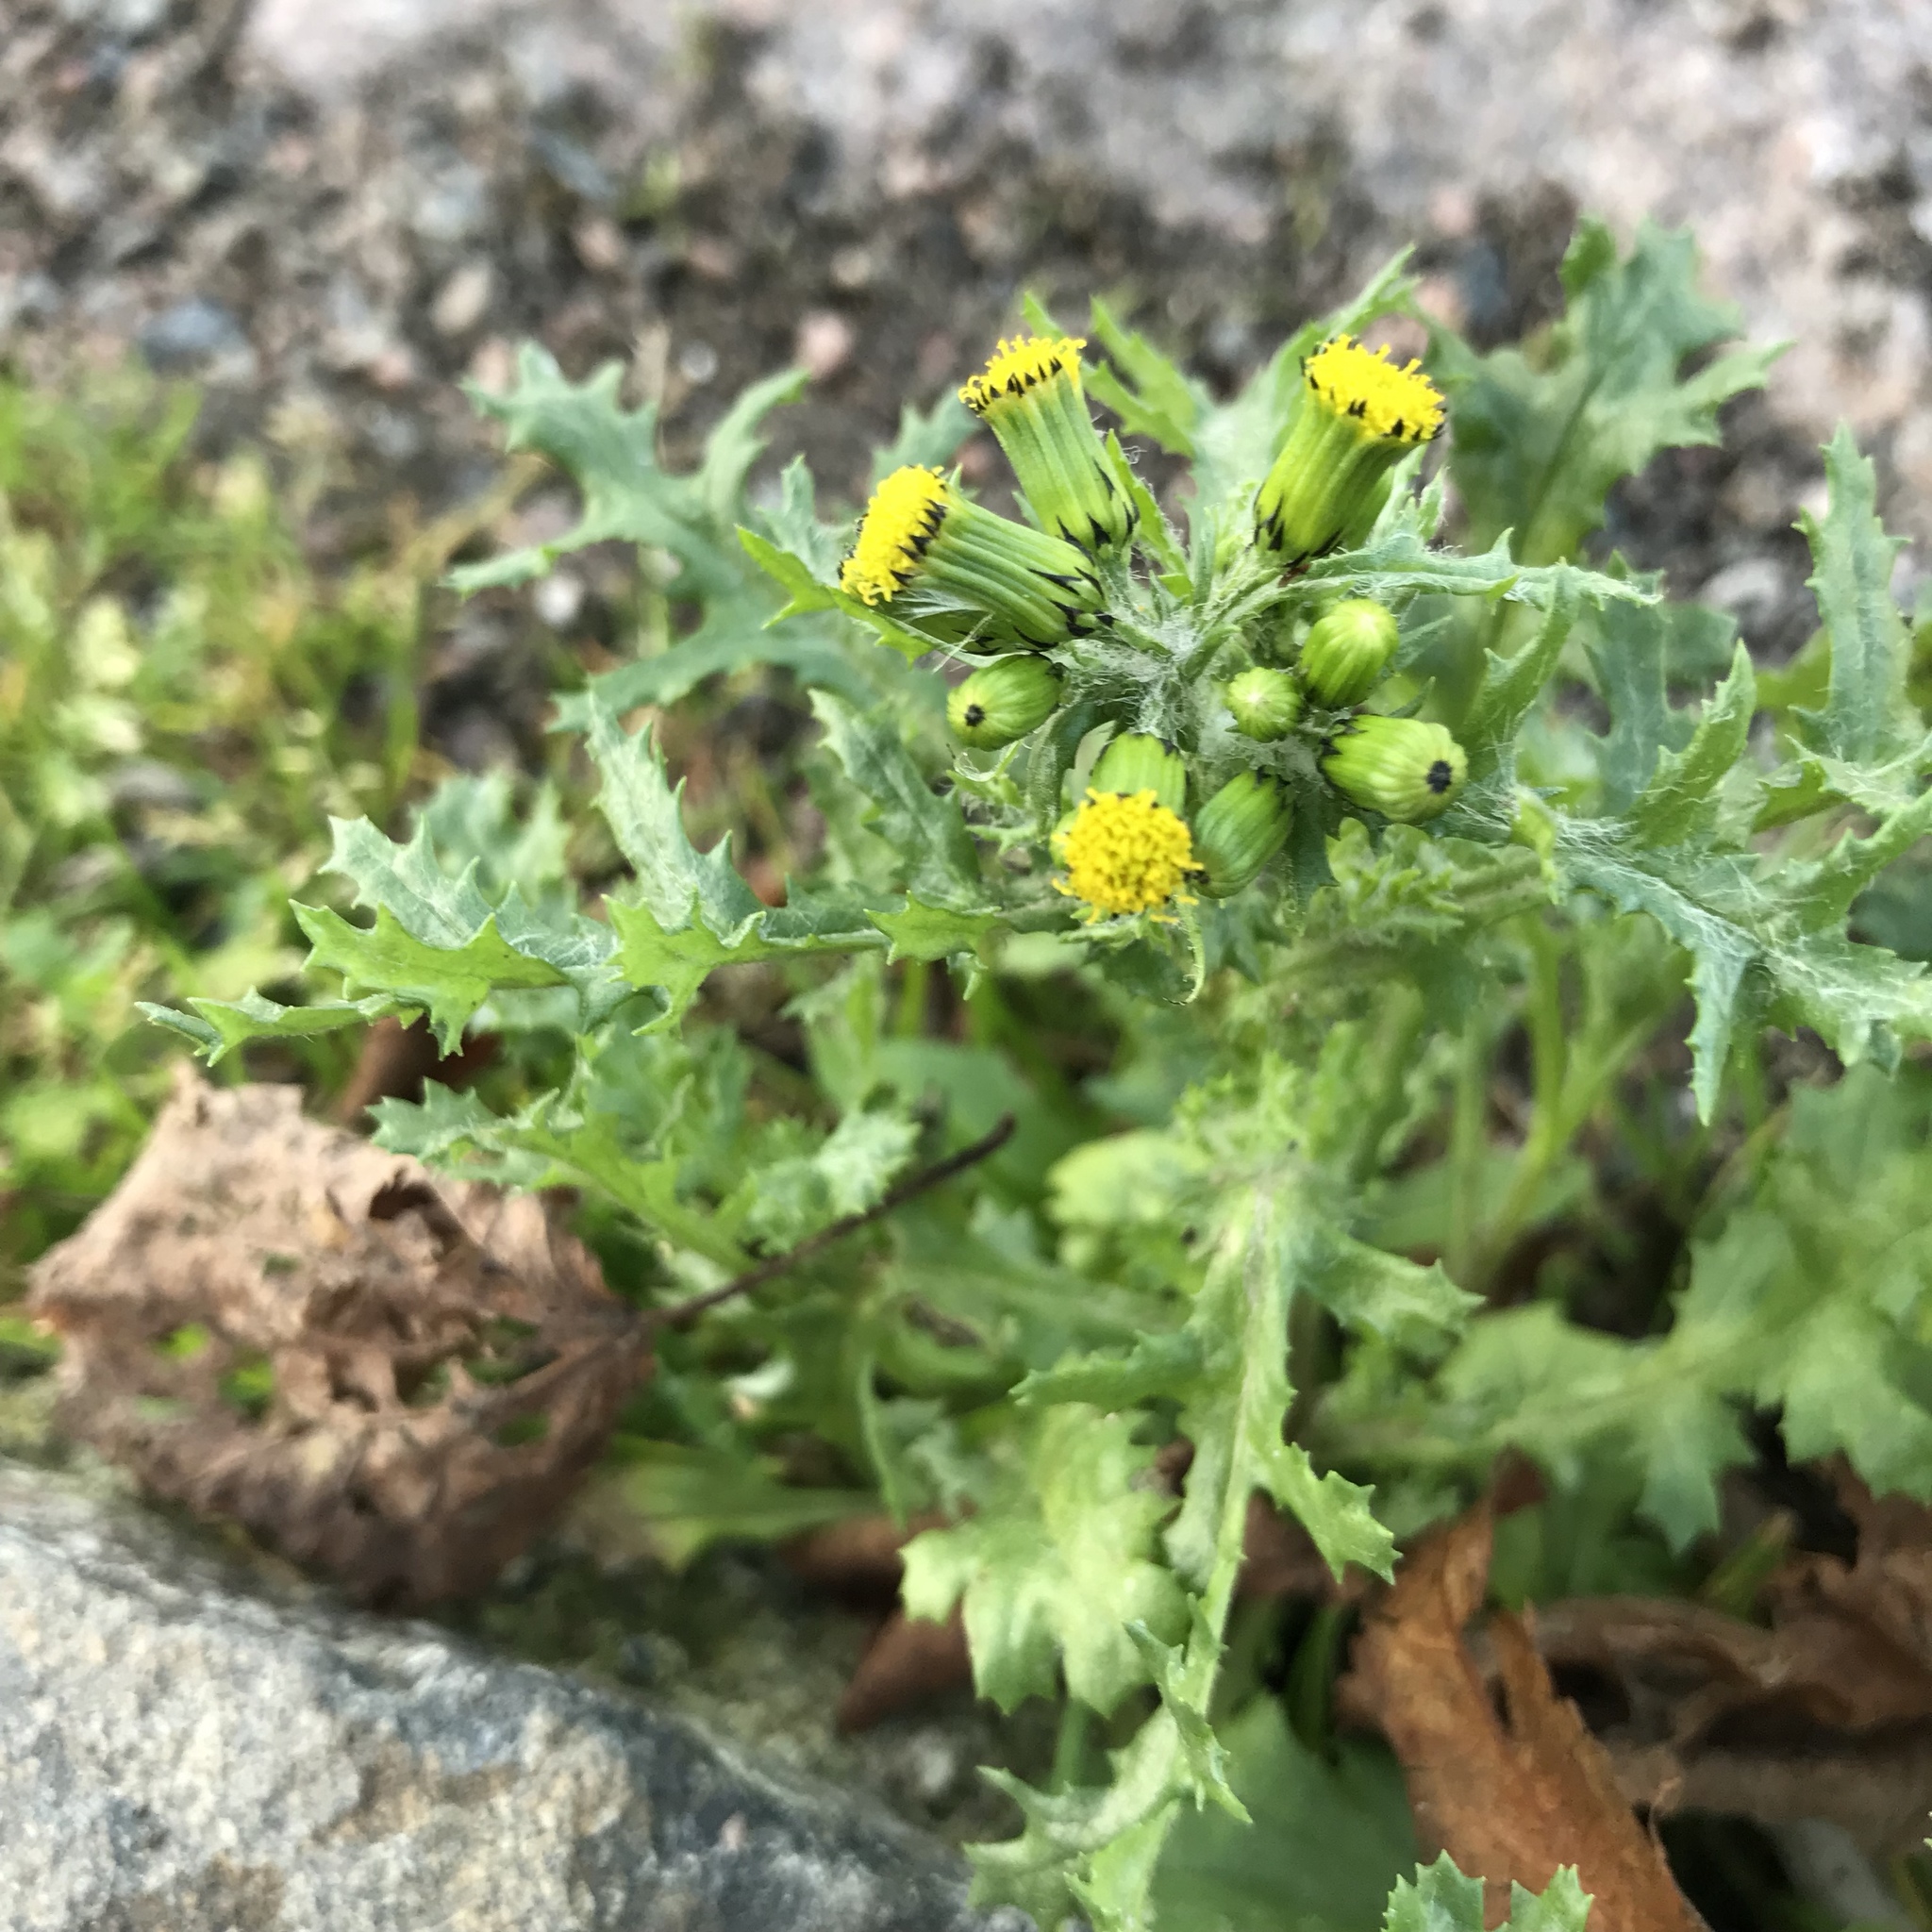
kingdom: Plantae
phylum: Tracheophyta
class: Magnoliopsida
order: Asterales
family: Asteraceae
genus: Senecio
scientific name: Senecio vulgaris
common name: Old-man-in-the-spring
